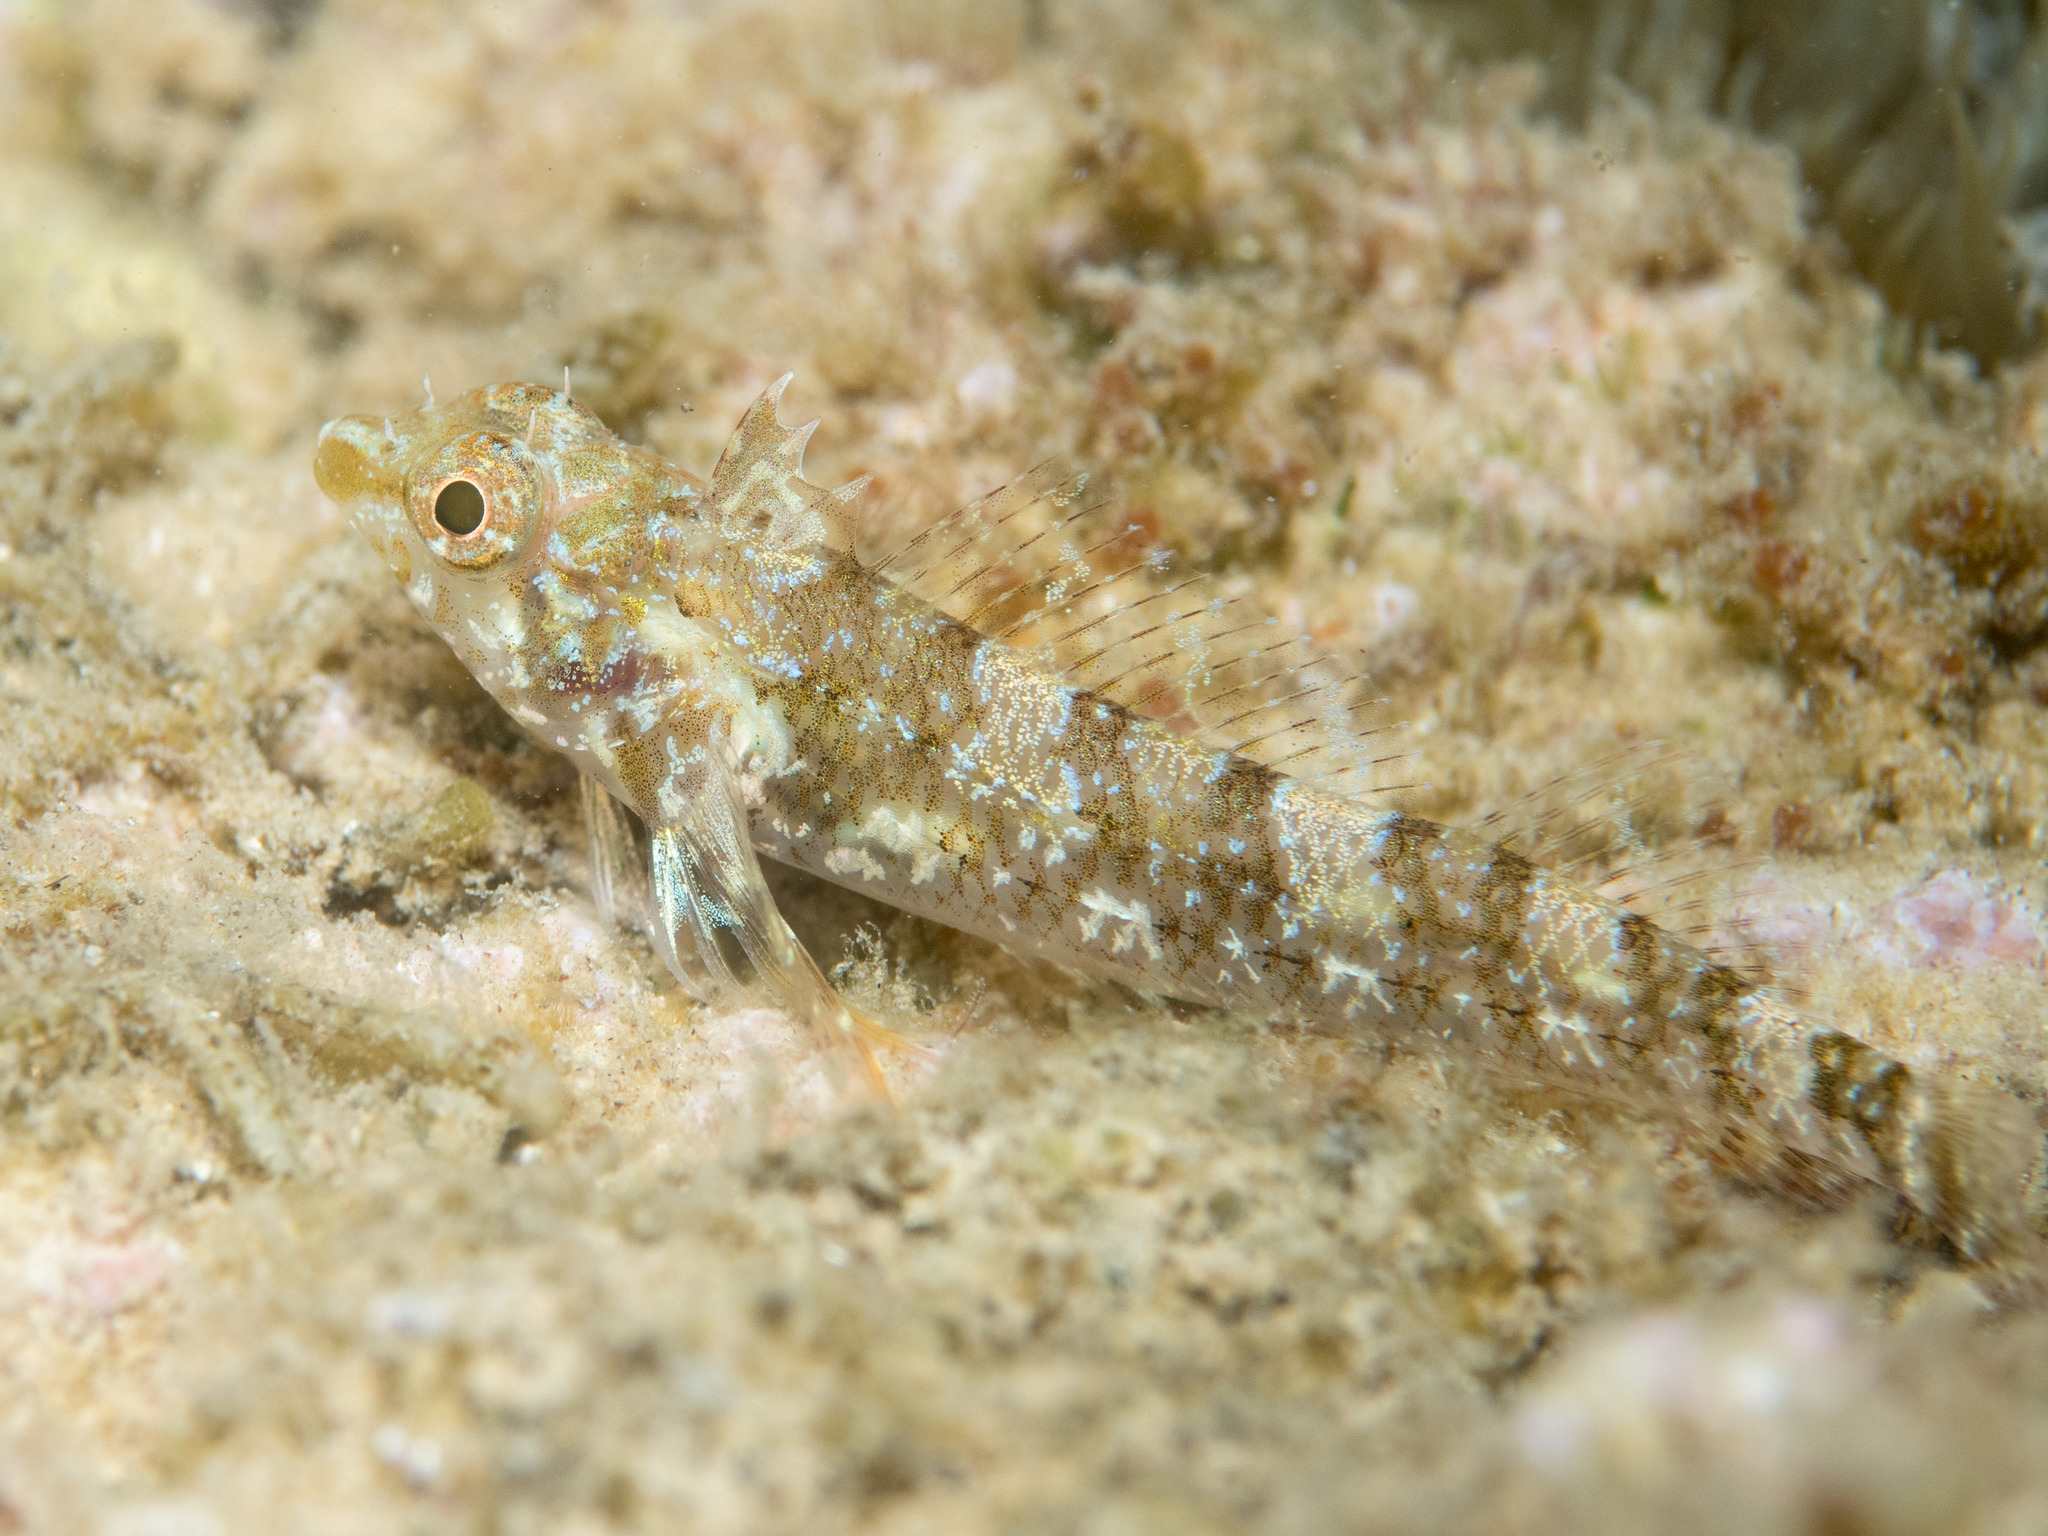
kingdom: Animalia
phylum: Chordata
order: Perciformes
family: Tripterygiidae
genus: Tripterygion
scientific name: Tripterygion tripteronotum
